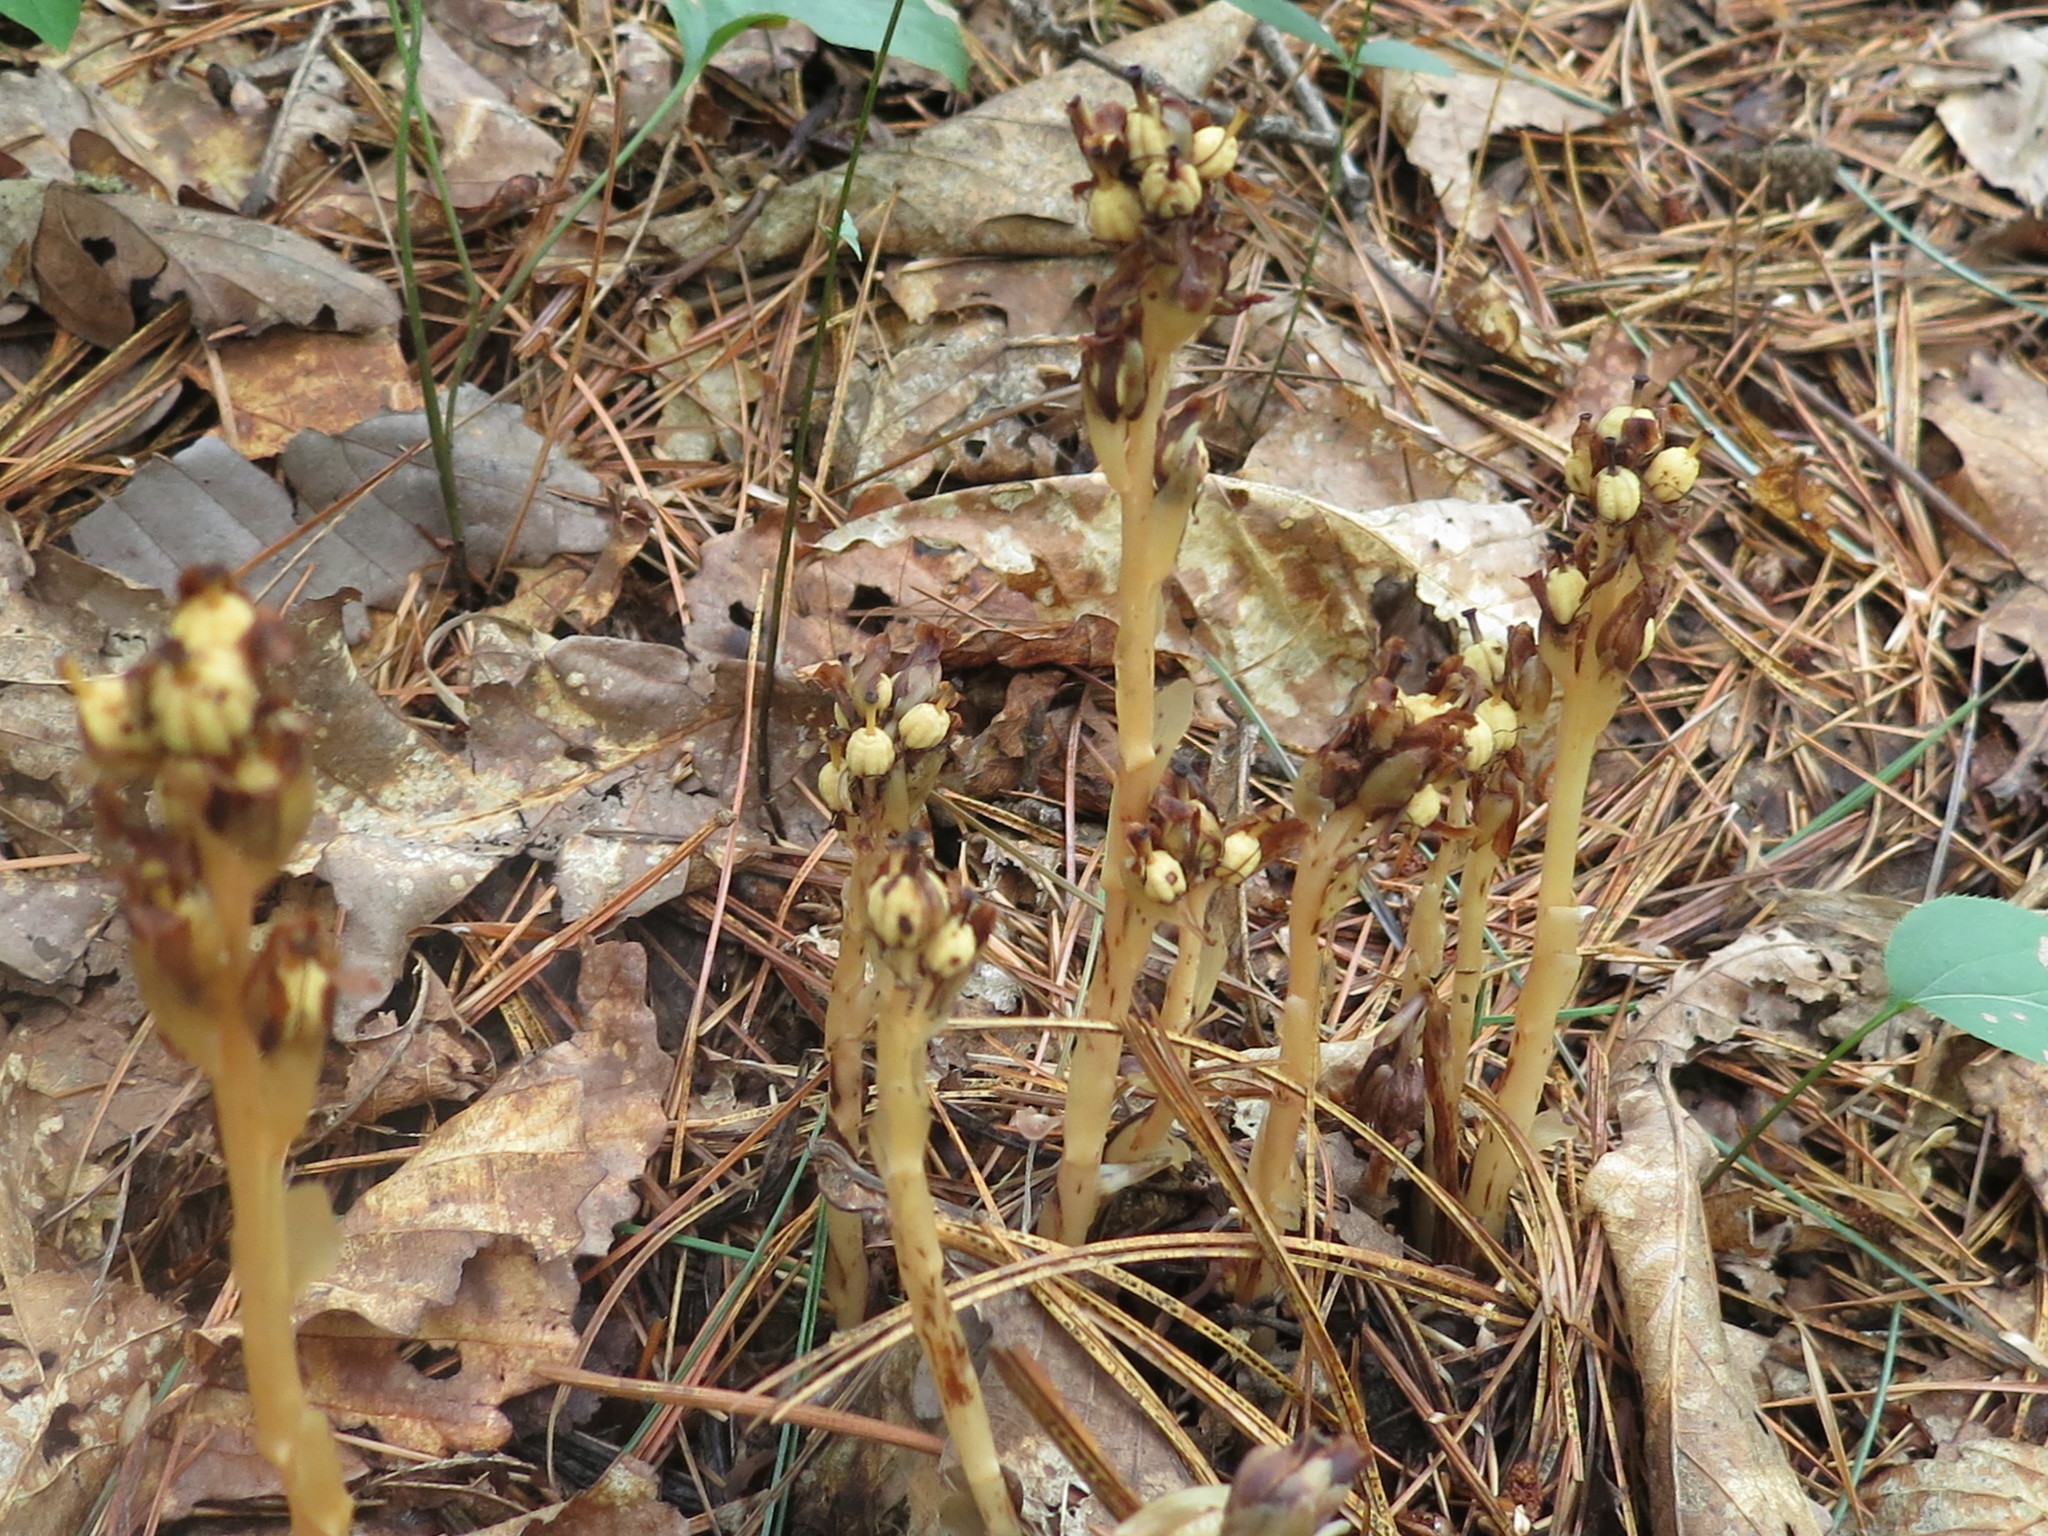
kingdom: Plantae
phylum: Tracheophyta
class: Magnoliopsida
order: Ericales
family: Ericaceae
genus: Hypopitys
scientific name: Hypopitys monotropa
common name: Yellow bird's-nest
